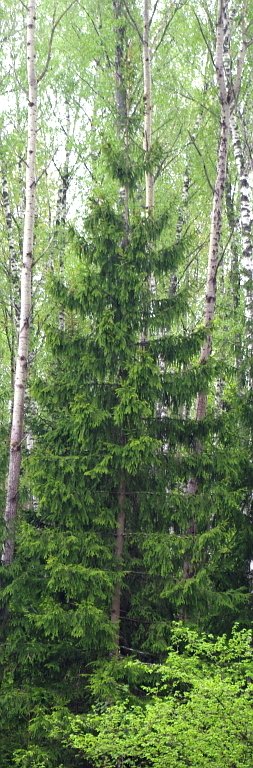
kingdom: Plantae
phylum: Tracheophyta
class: Pinopsida
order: Pinales
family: Pinaceae
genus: Picea
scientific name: Picea abies
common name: Norway spruce
